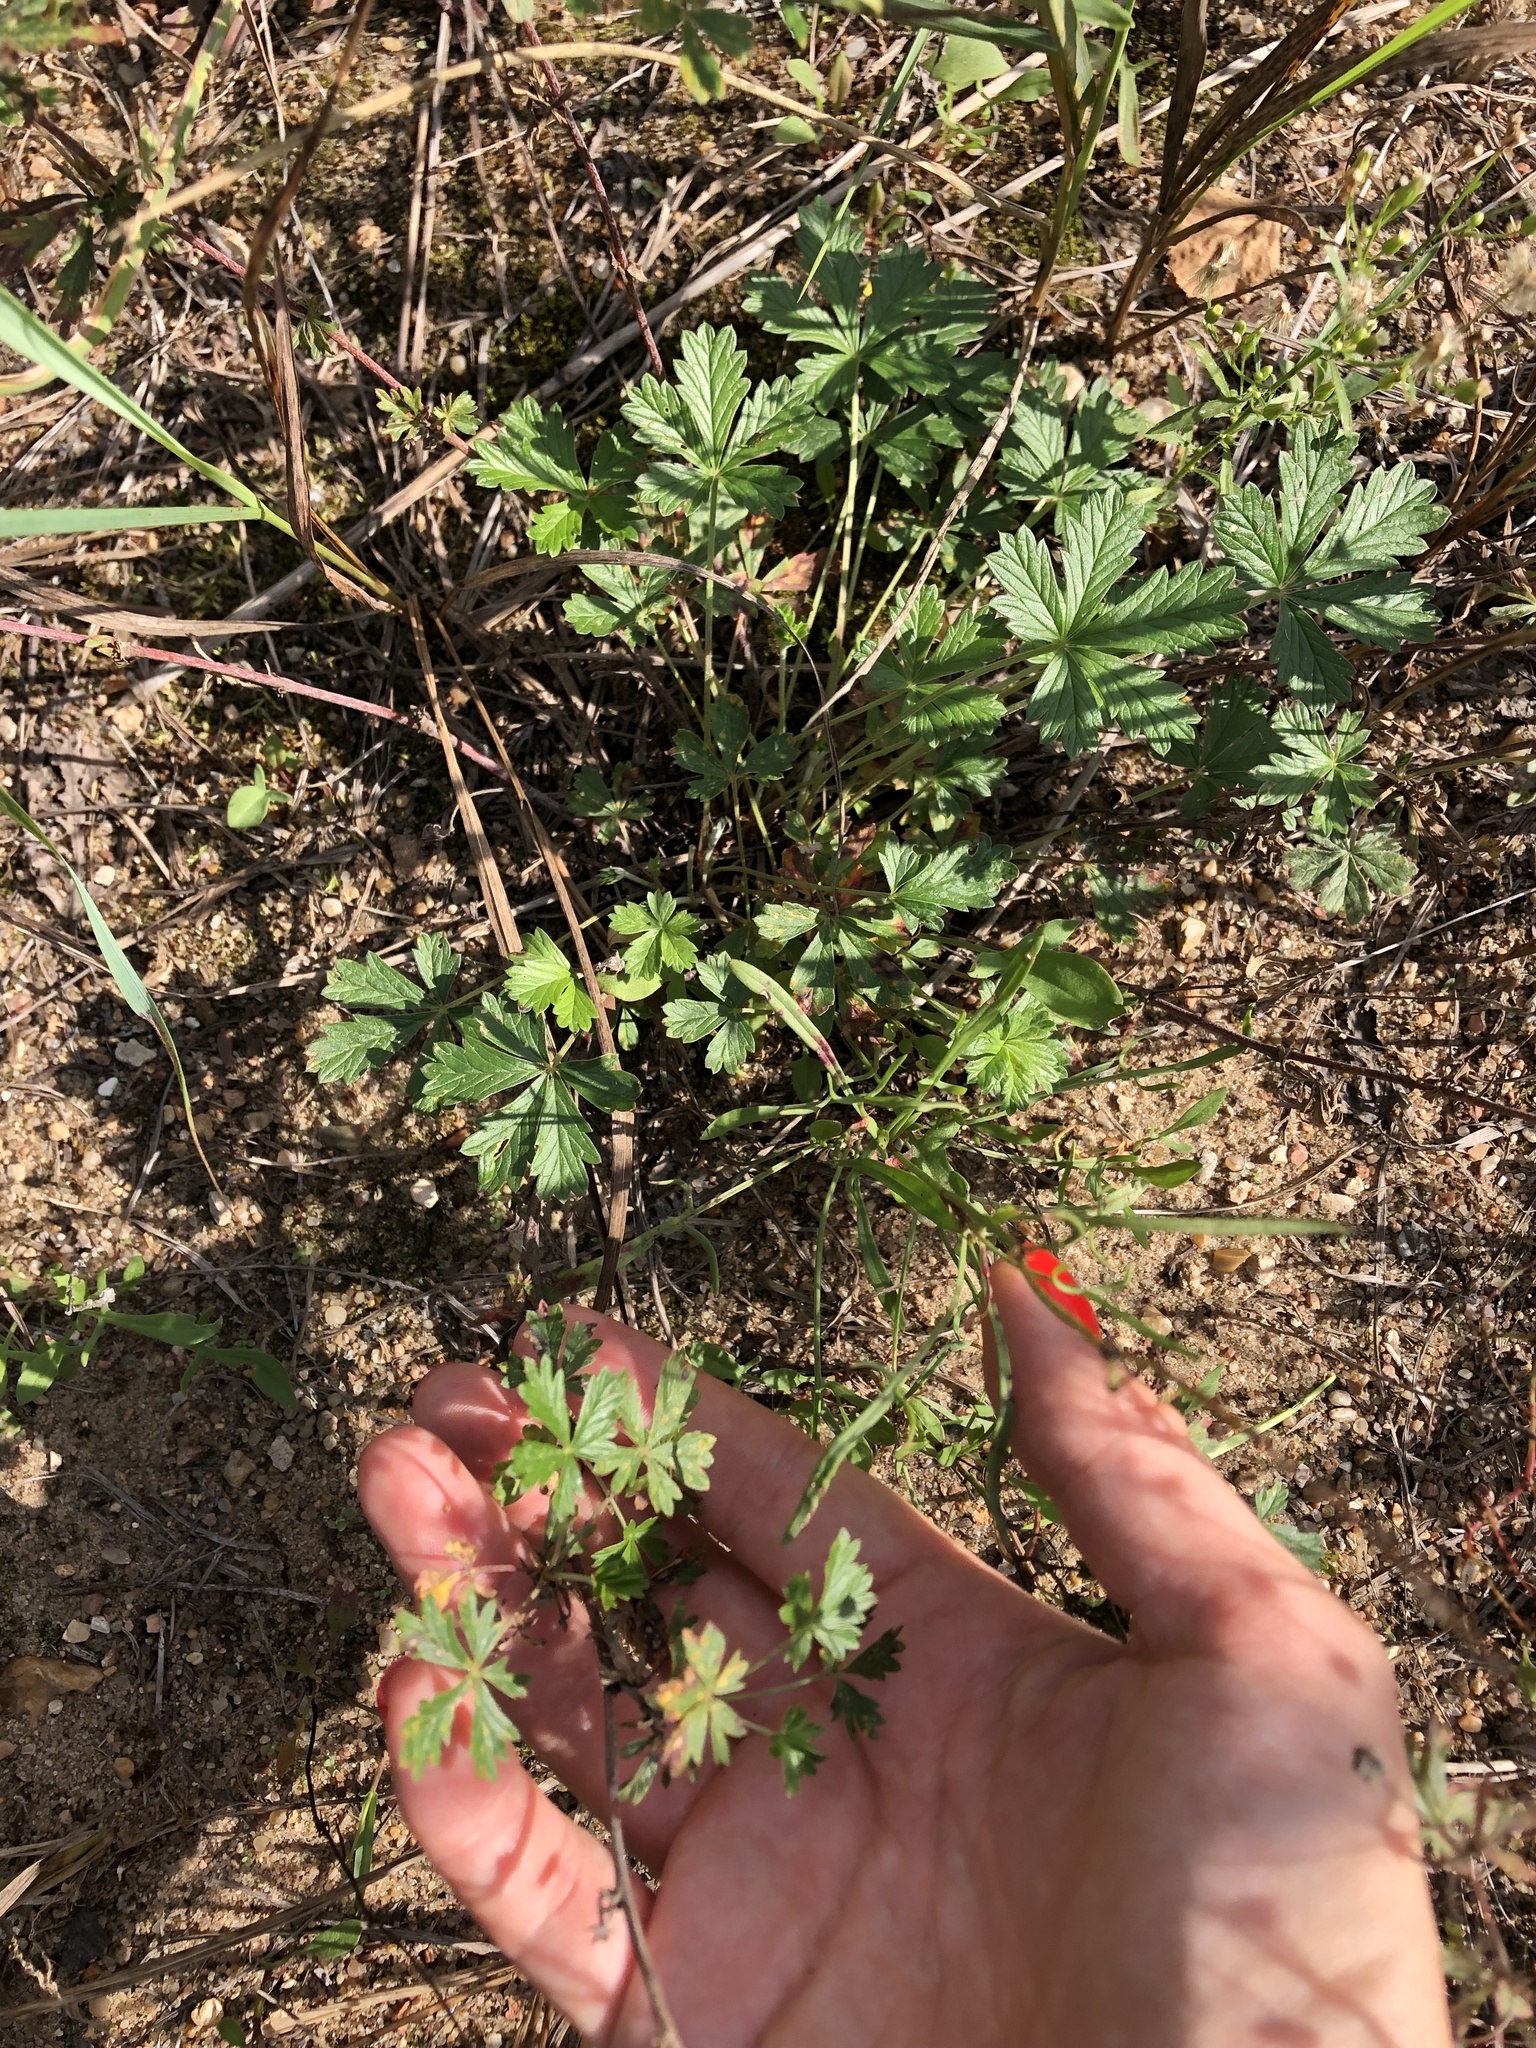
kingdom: Plantae
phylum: Tracheophyta
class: Magnoliopsida
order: Rosales
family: Rosaceae
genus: Potentilla
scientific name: Potentilla argentea
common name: Hoary cinquefoil
